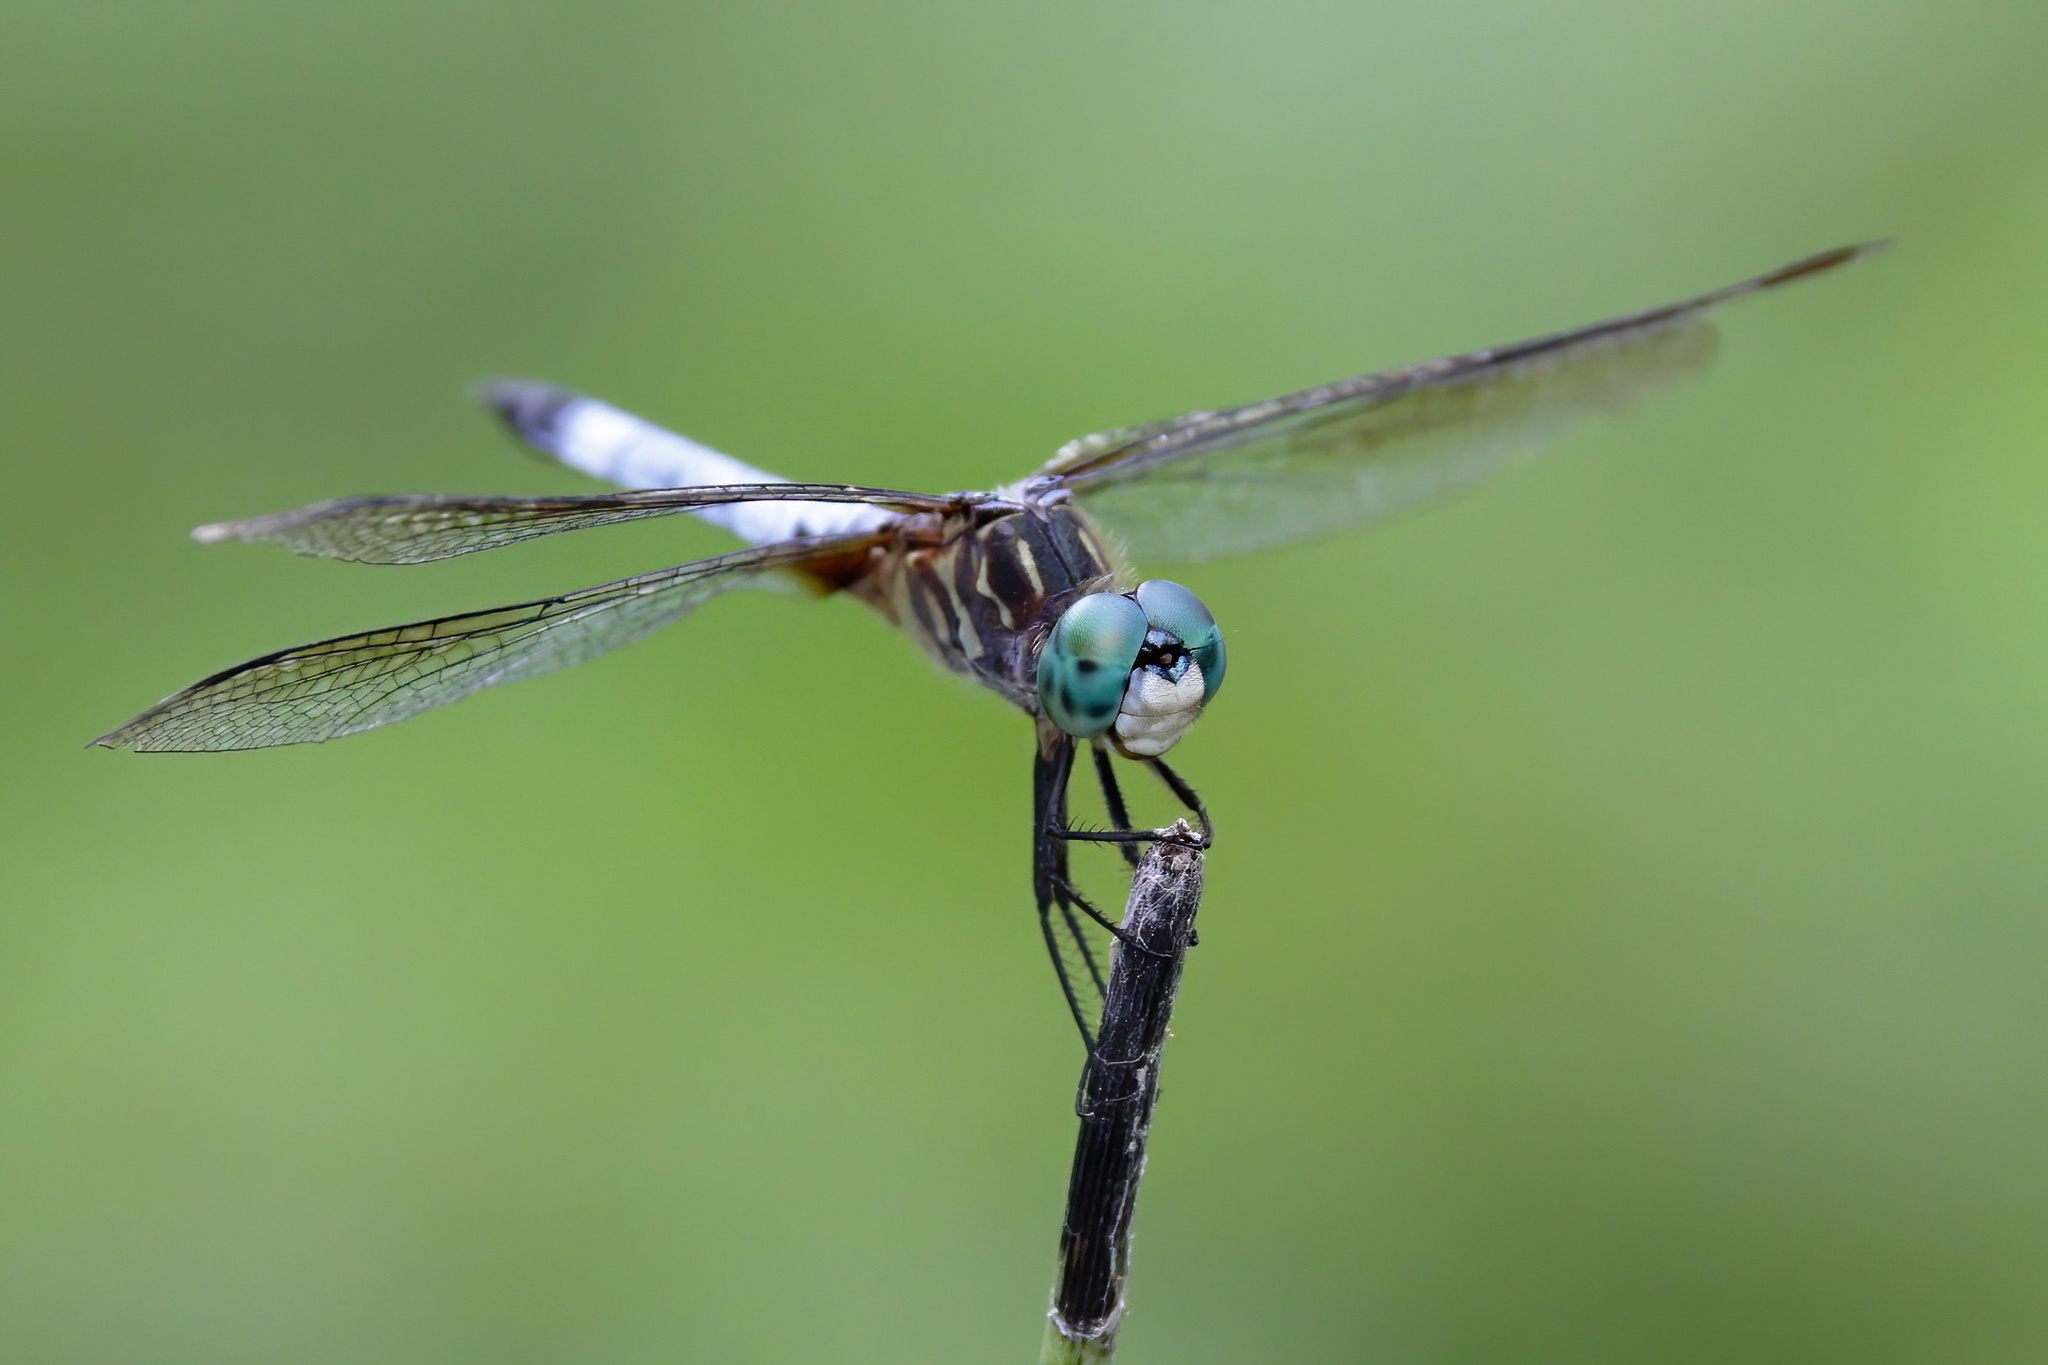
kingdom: Animalia
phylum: Arthropoda
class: Insecta
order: Odonata
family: Libellulidae
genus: Pachydiplax
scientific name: Pachydiplax longipennis
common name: Blue dasher
